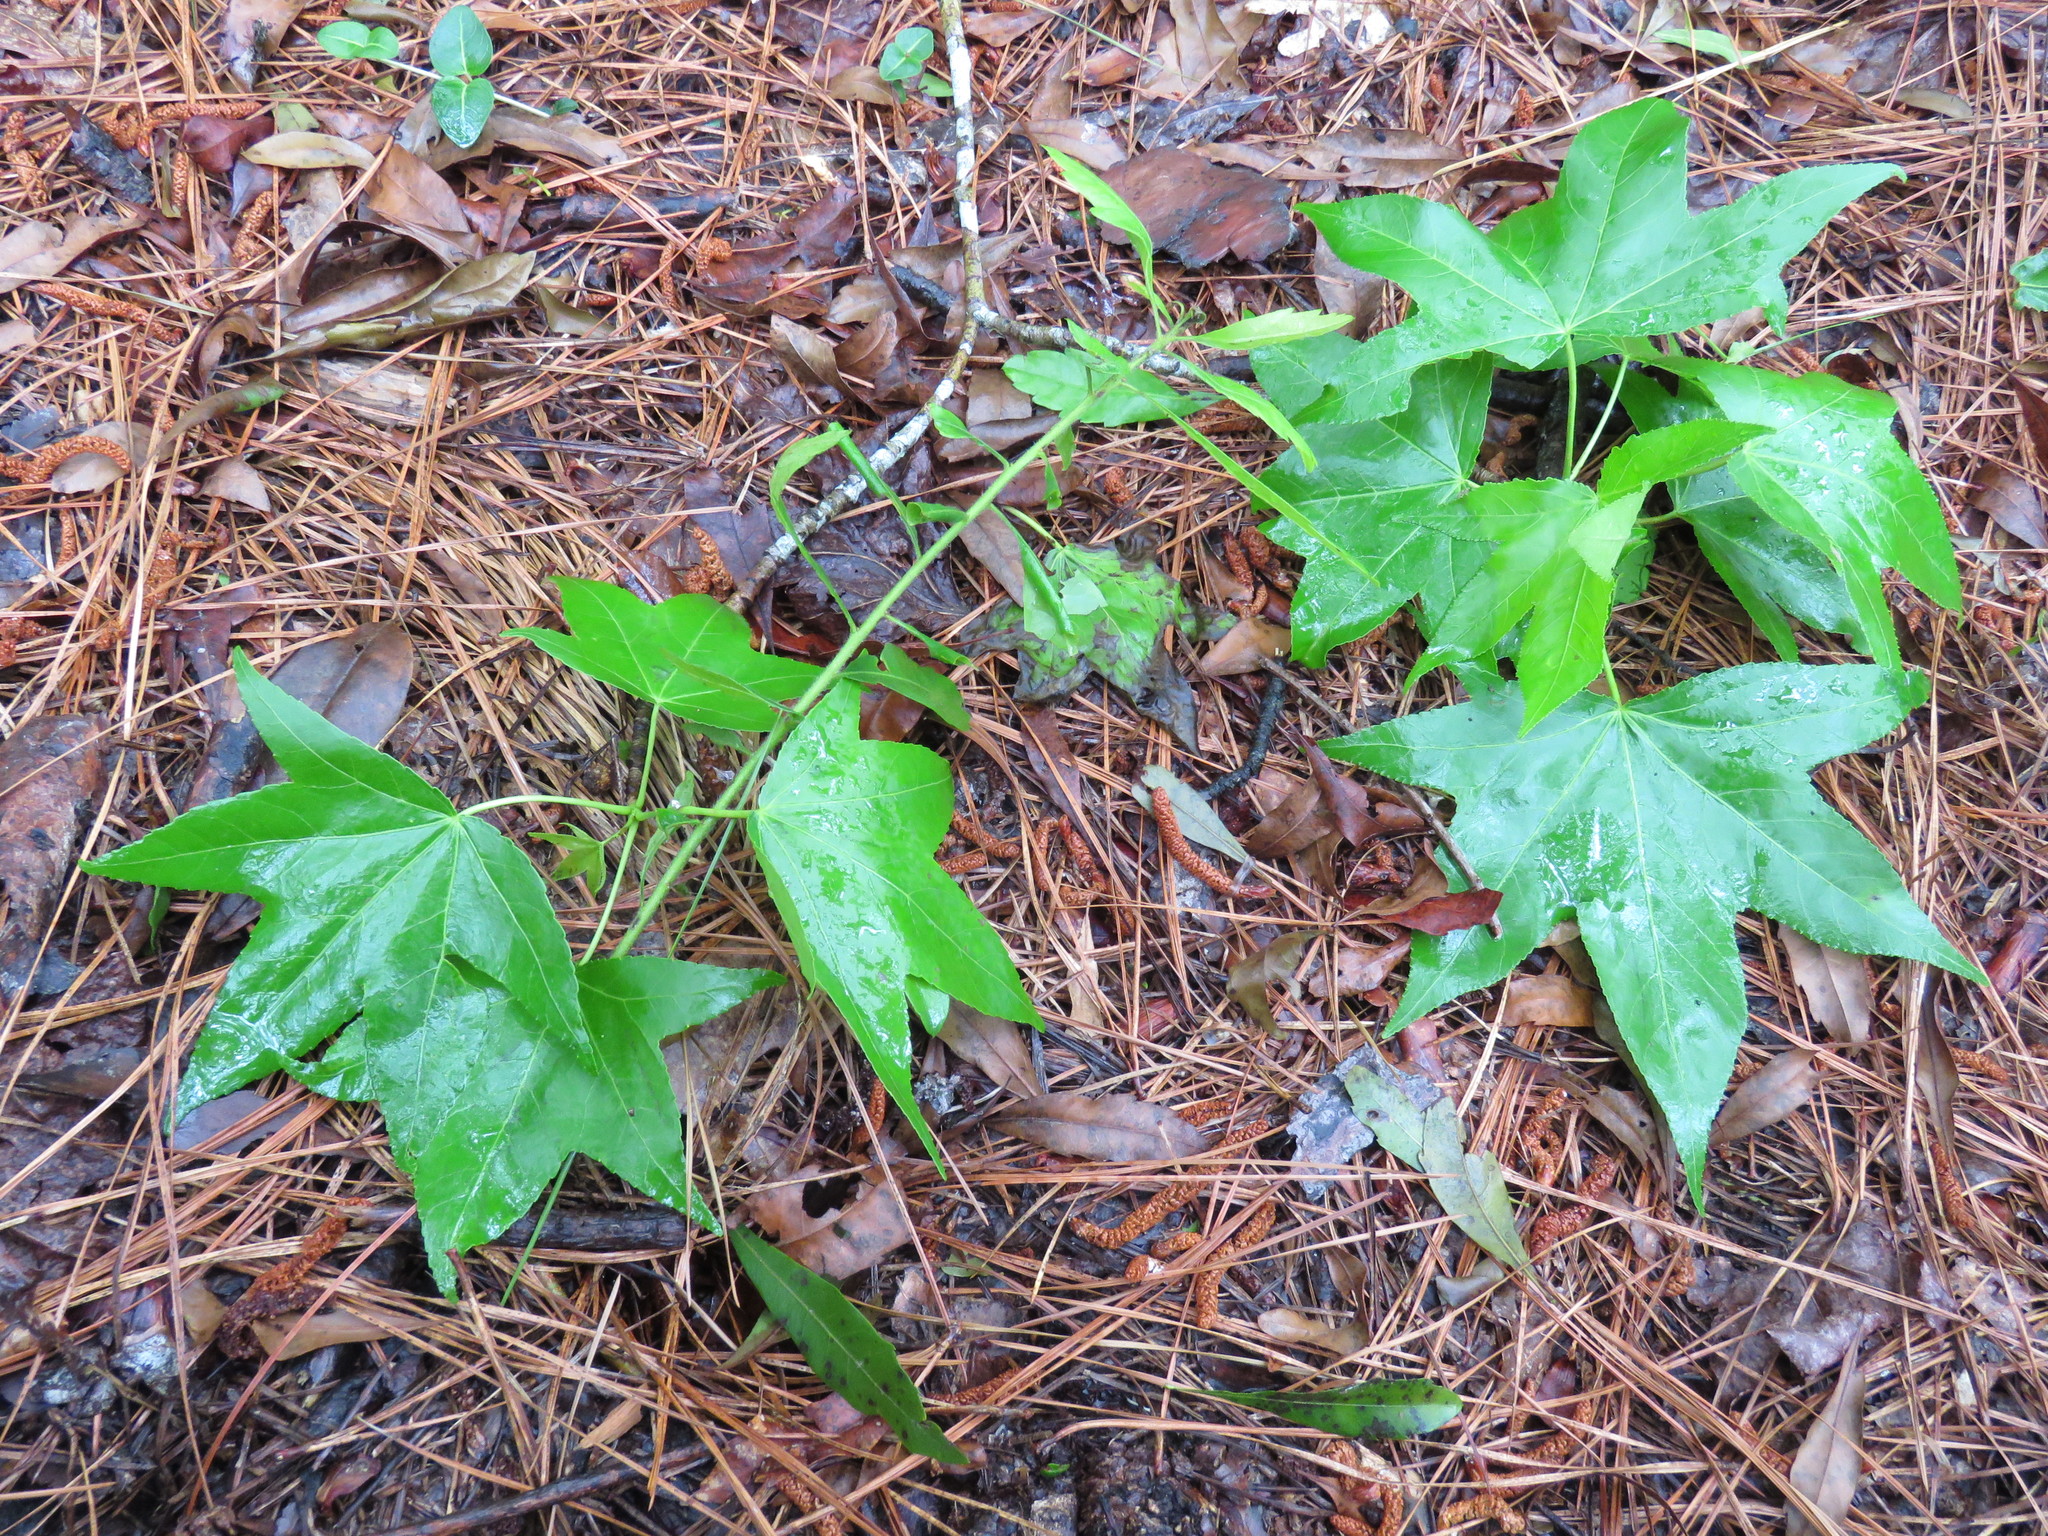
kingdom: Plantae
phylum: Tracheophyta
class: Magnoliopsida
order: Saxifragales
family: Altingiaceae
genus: Liquidambar
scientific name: Liquidambar styraciflua
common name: Sweet gum
